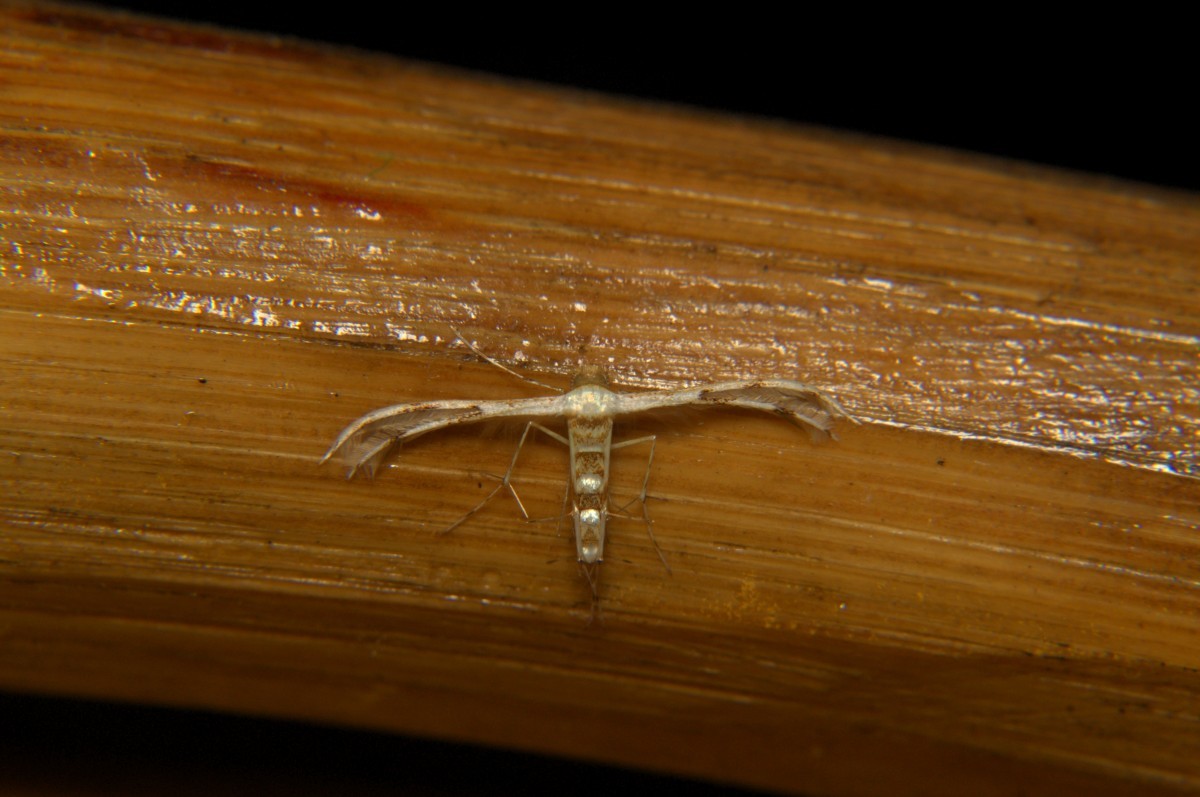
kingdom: Animalia
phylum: Arthropoda
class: Insecta
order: Lepidoptera
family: Pterophoridae
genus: Cosmoclostis
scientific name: Cosmoclostis pesseuta
